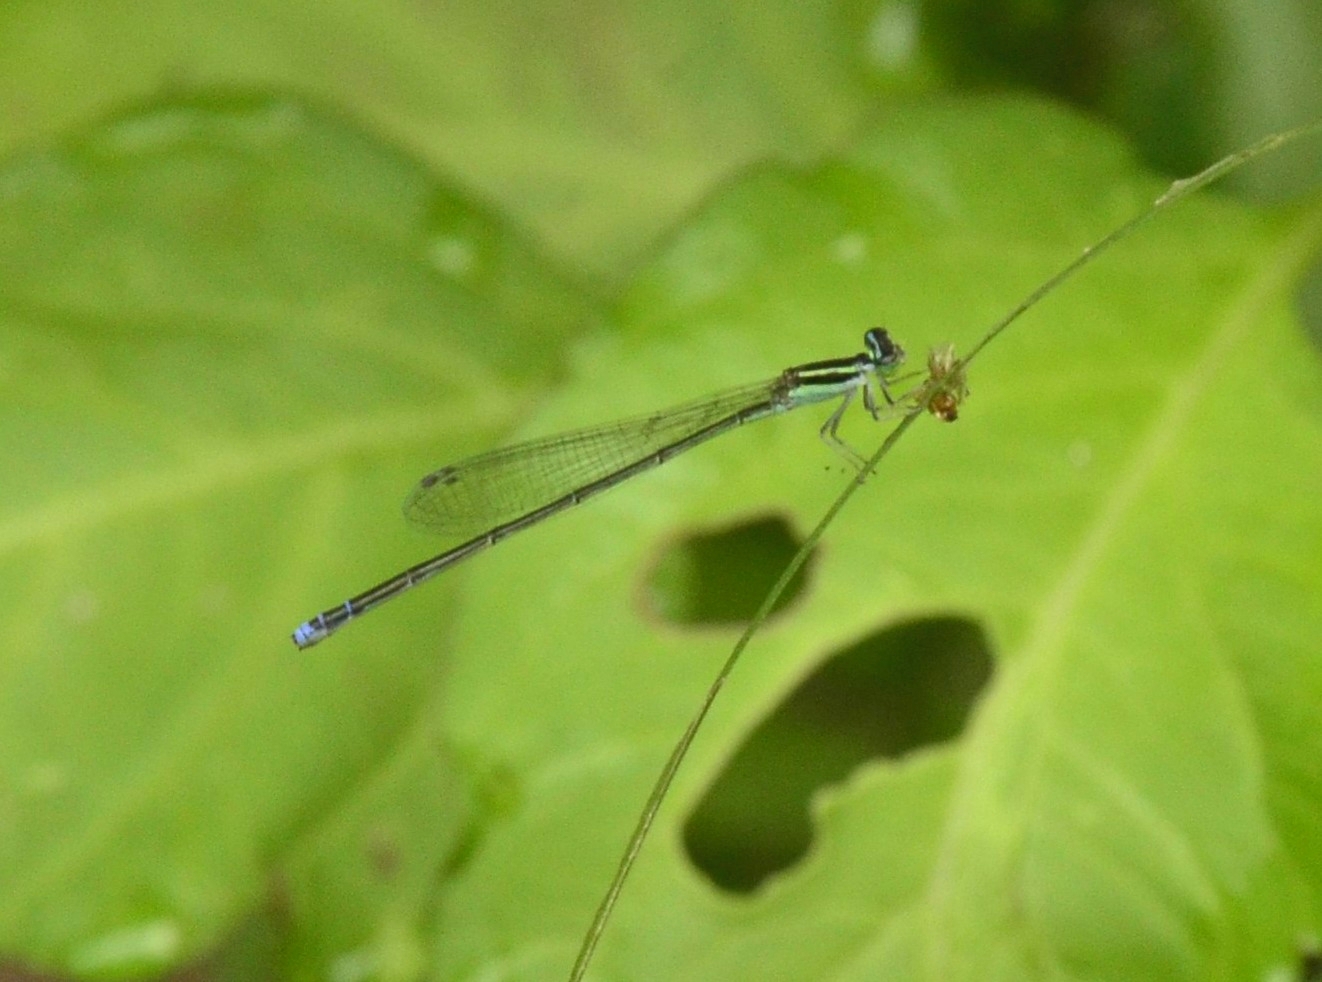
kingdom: Animalia
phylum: Arthropoda
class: Insecta
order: Odonata
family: Coenagrionidae
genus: Aciagrion
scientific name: Aciagrion occidentale
